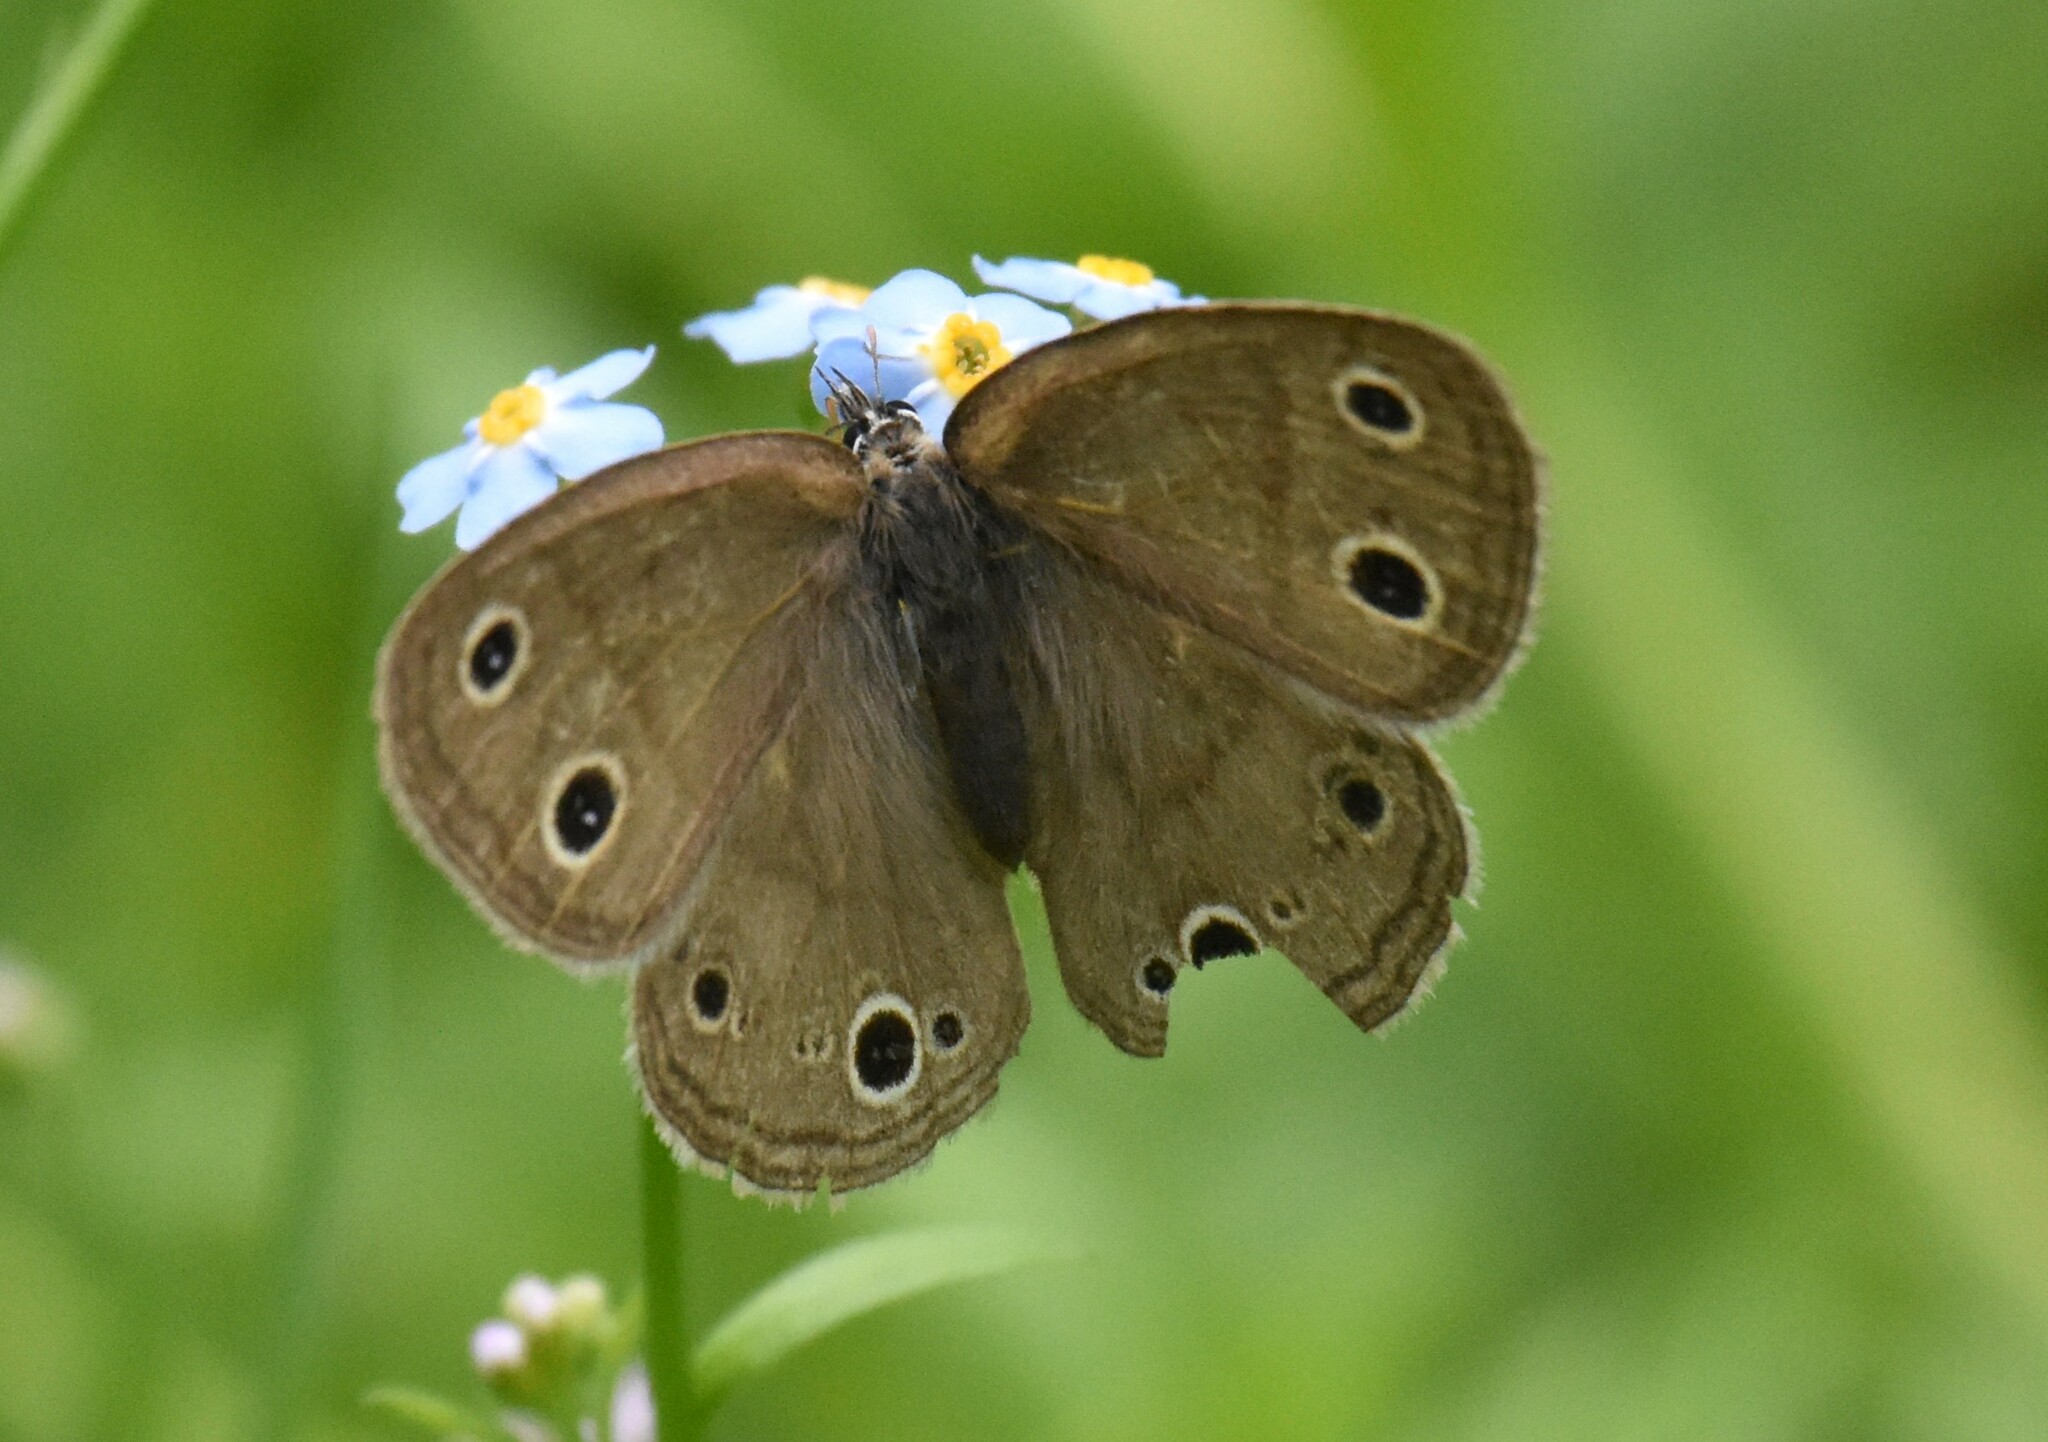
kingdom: Animalia
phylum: Arthropoda
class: Insecta
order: Lepidoptera
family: Nymphalidae
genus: Euptychia
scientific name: Euptychia cymela
